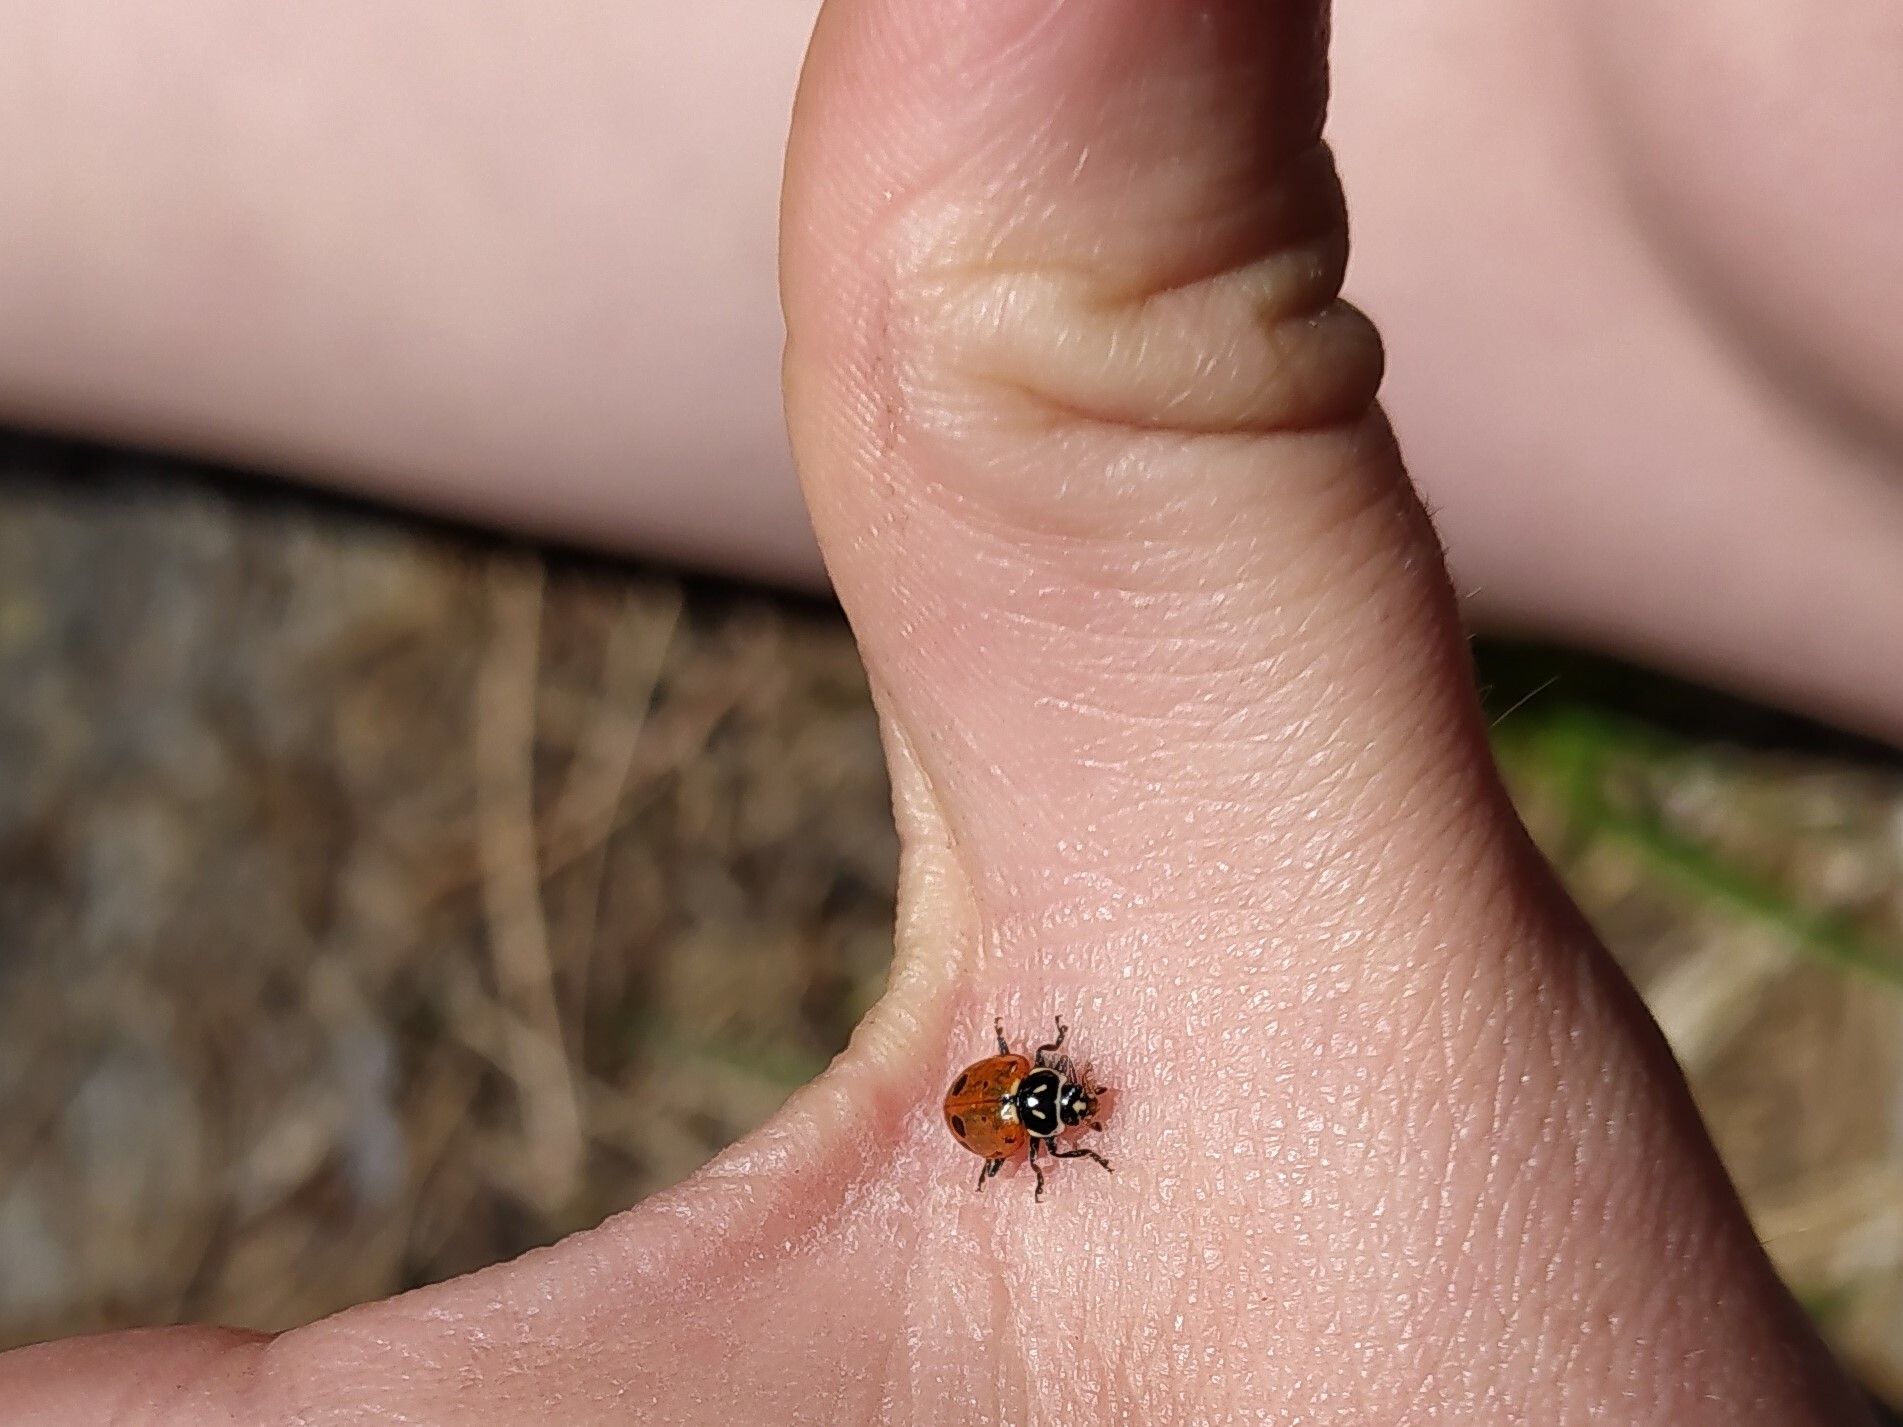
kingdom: Animalia
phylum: Arthropoda
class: Insecta
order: Coleoptera
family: Coccinellidae
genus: Hippodamia
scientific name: Hippodamia convergens
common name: Convergent lady beetle
